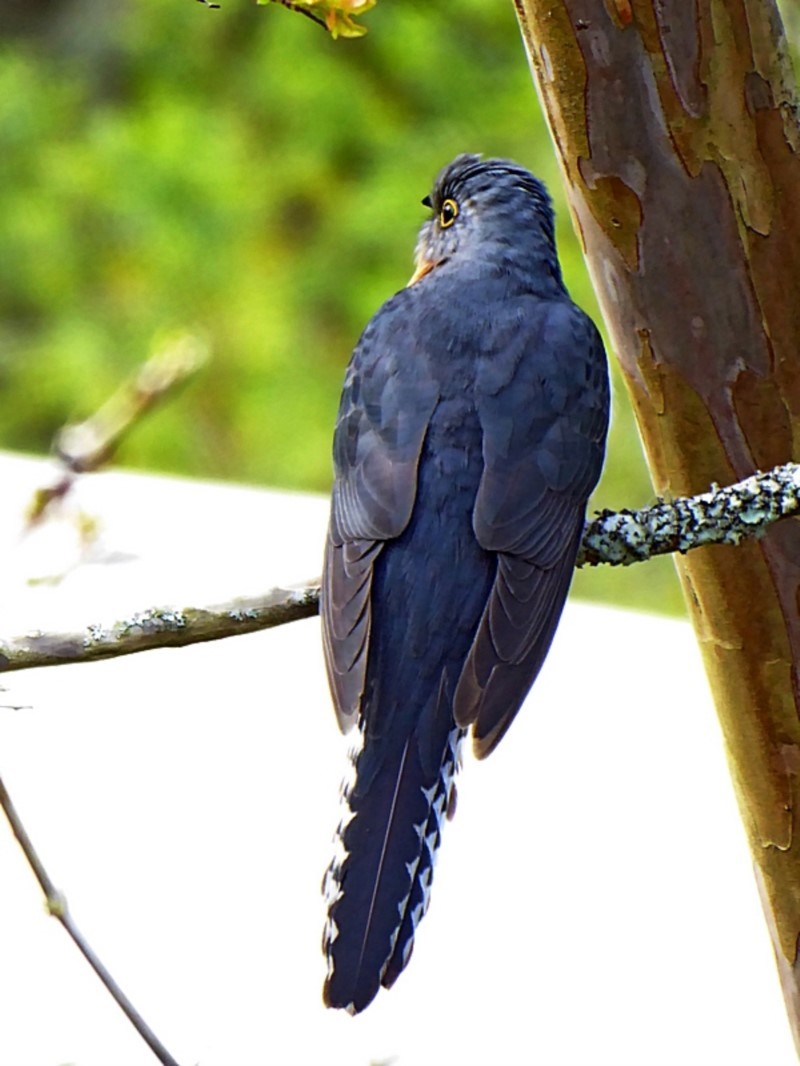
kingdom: Animalia
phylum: Chordata
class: Aves
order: Cuculiformes
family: Cuculidae
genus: Cacomantis
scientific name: Cacomantis flabelliformis
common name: Fan-tailed cuckoo
